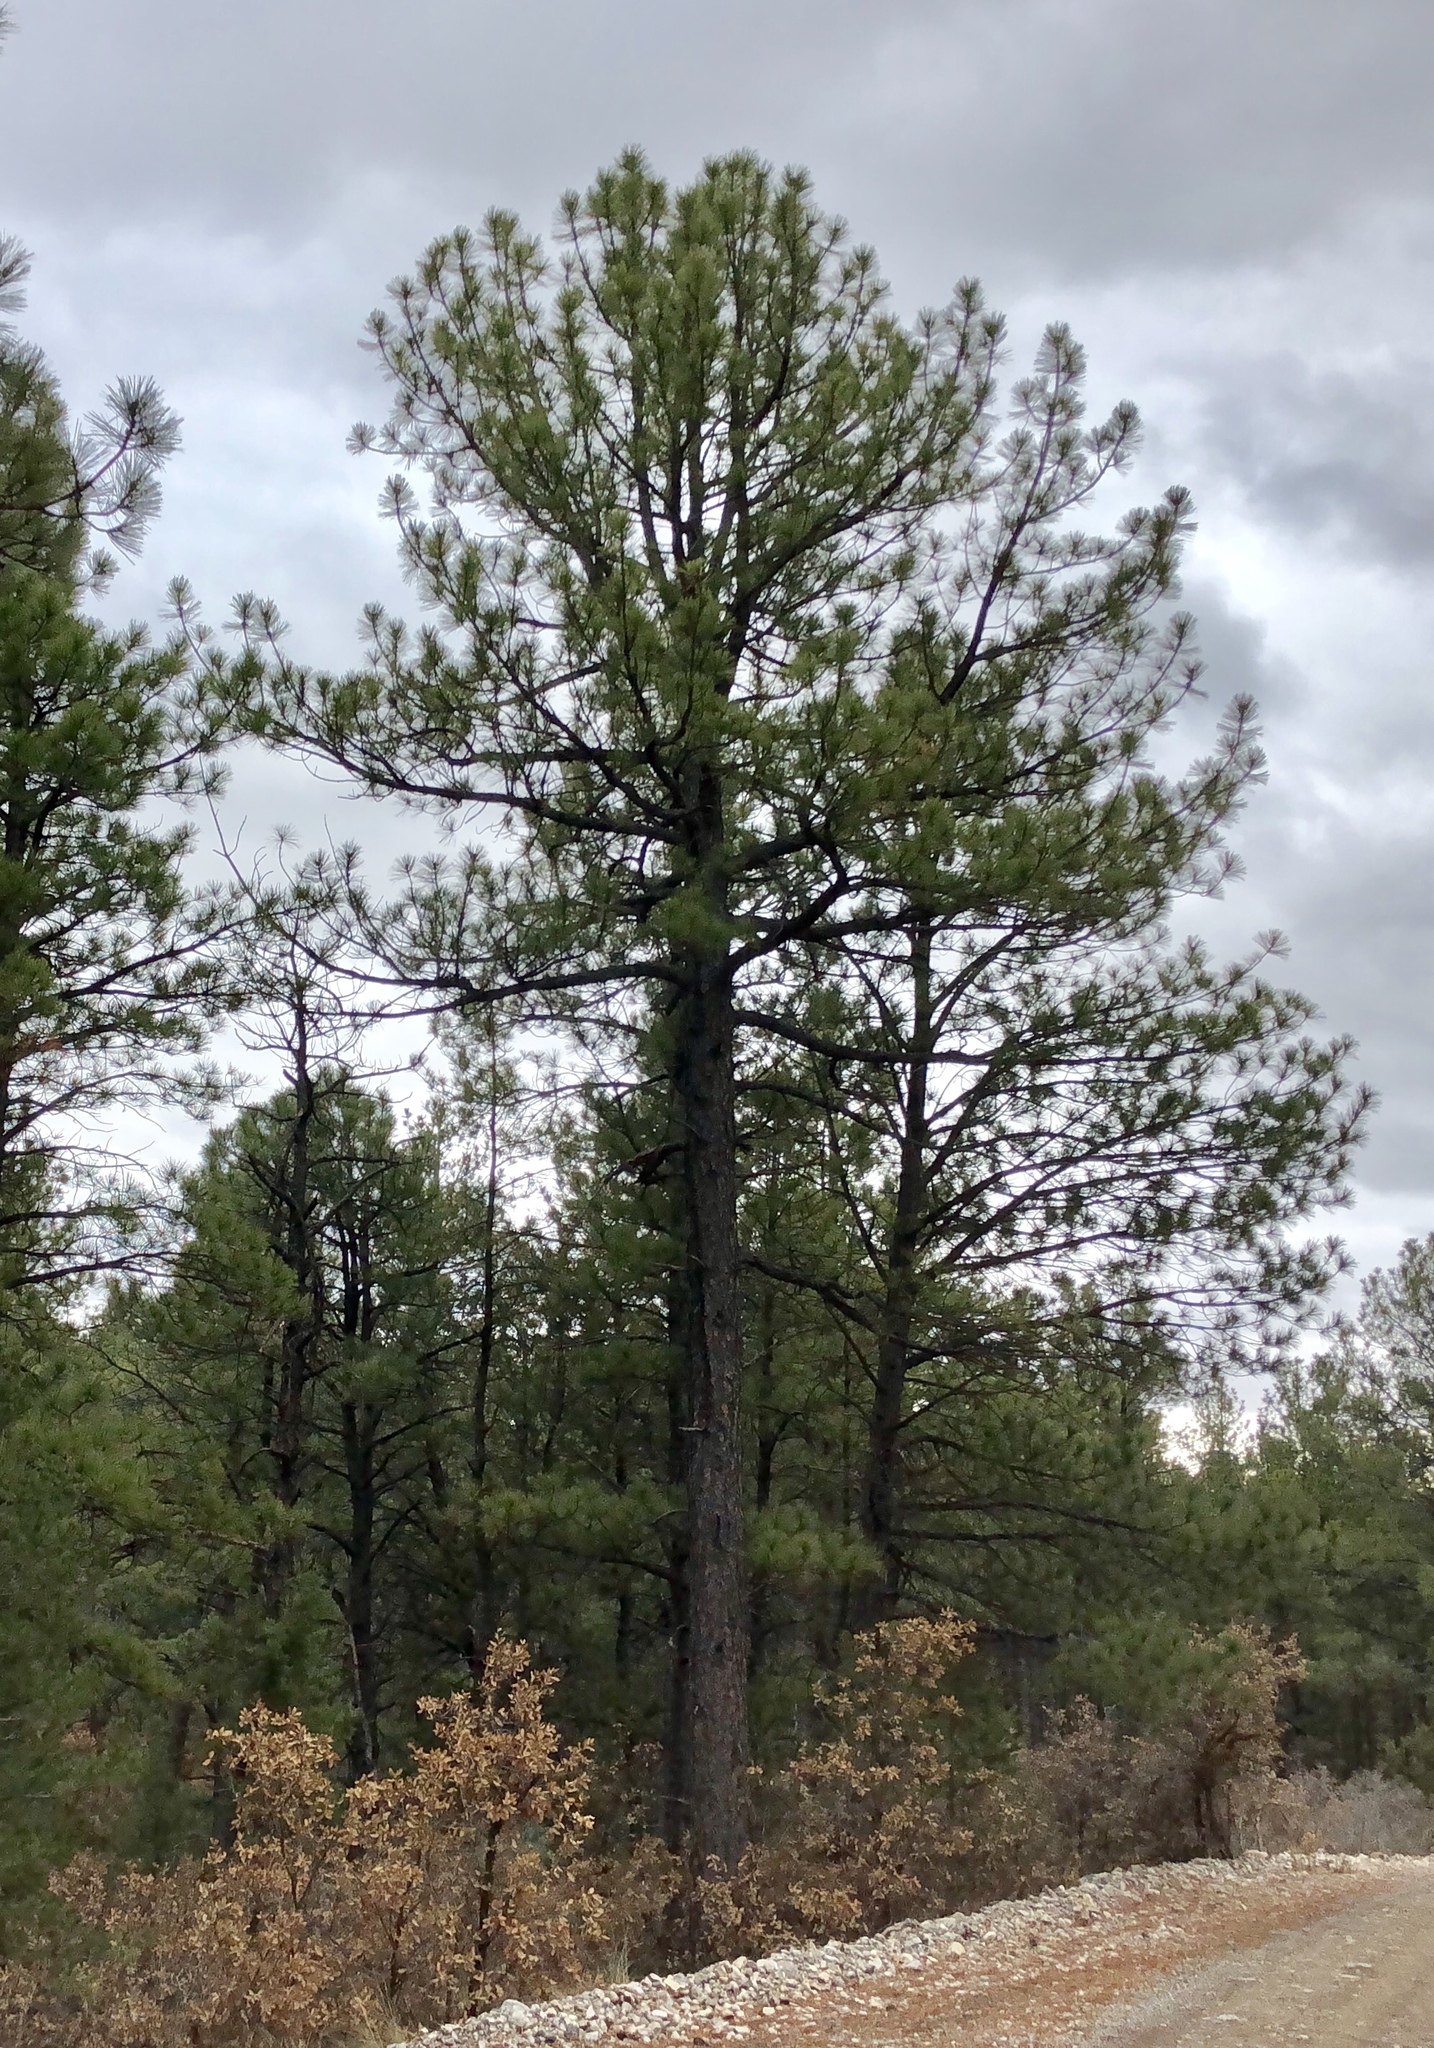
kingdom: Plantae
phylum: Tracheophyta
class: Pinopsida
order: Pinales
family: Pinaceae
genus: Pinus
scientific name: Pinus ponderosa
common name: Western yellow-pine
